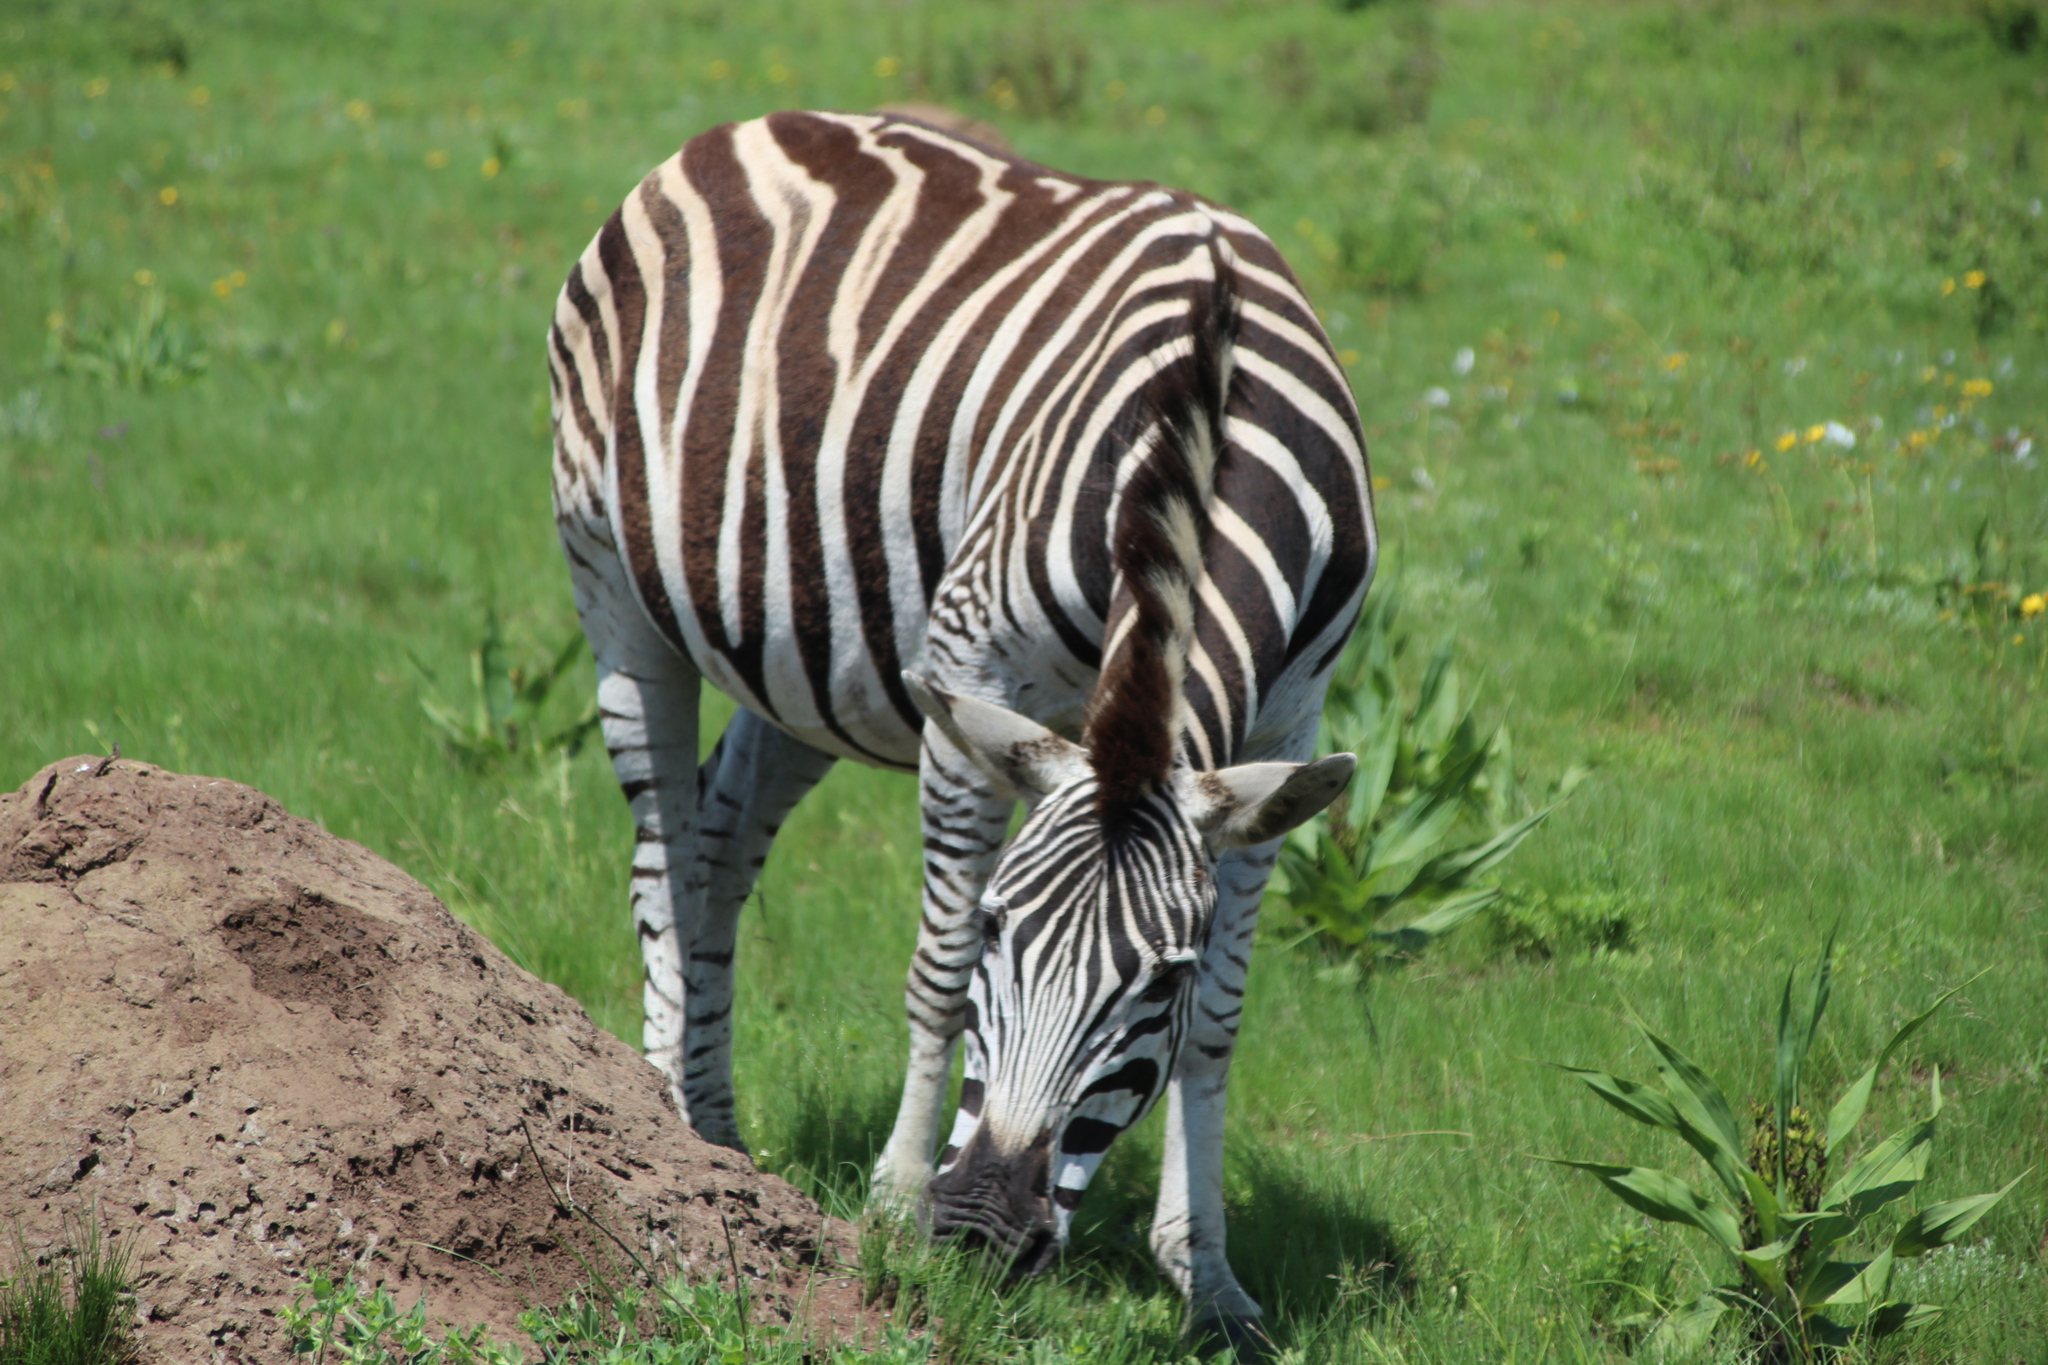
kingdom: Animalia
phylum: Chordata
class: Mammalia
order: Perissodactyla
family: Equidae
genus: Equus
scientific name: Equus quagga
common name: Plains zebra
